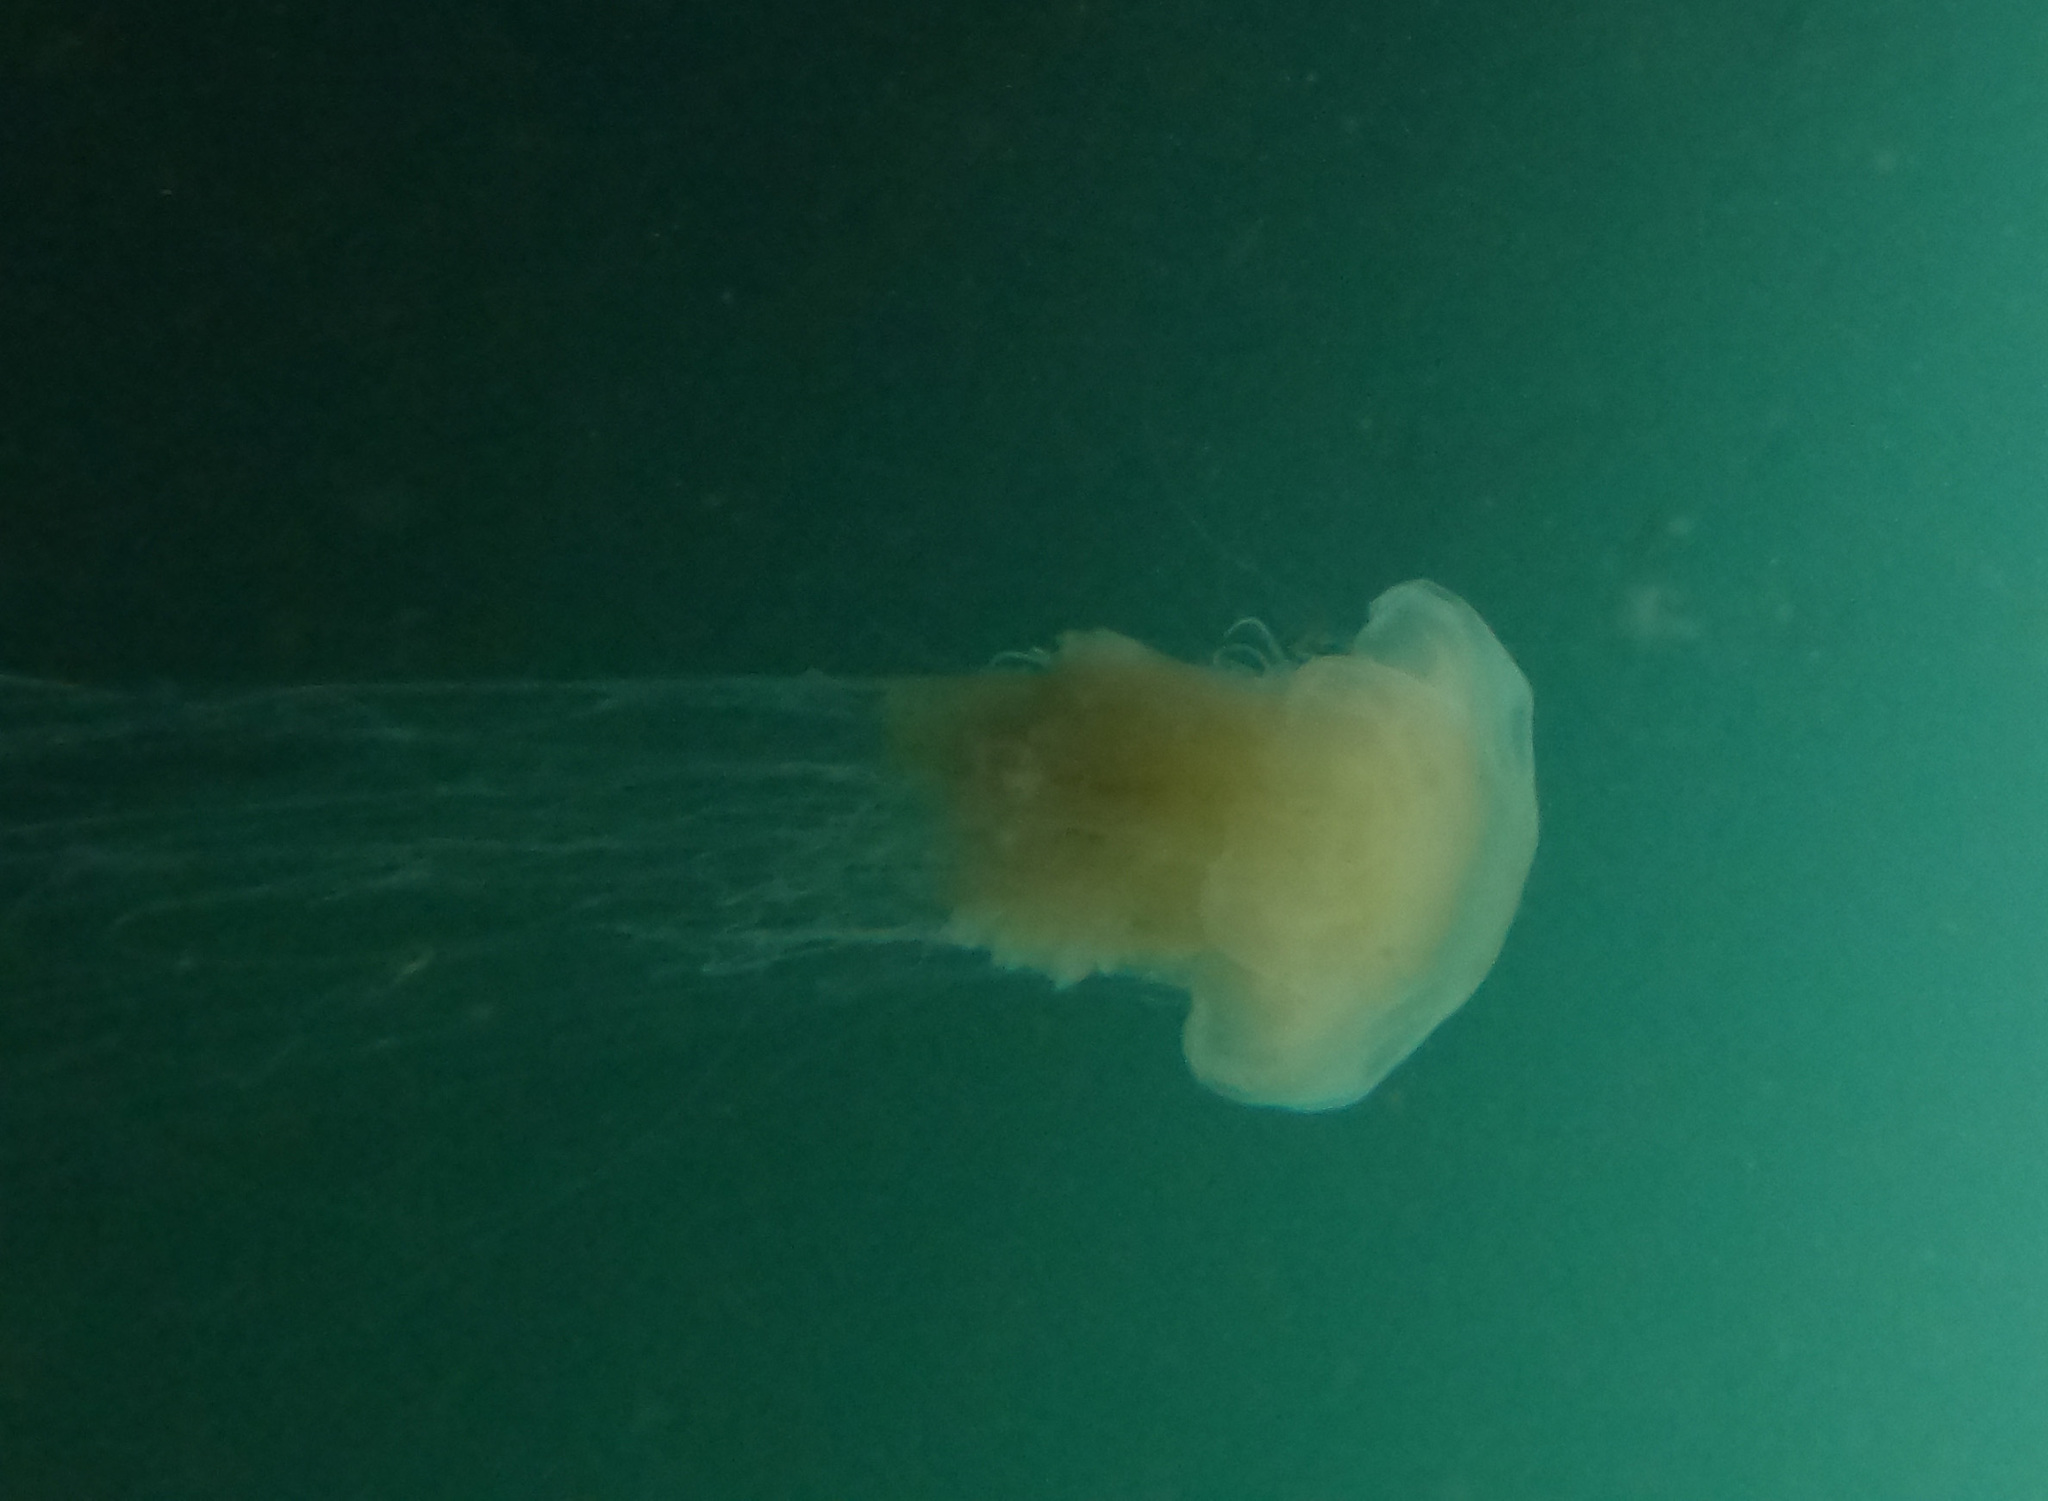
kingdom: Animalia
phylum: Cnidaria
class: Scyphozoa
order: Semaeostomeae
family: Phacellophoridae
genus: Phacellophora
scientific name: Phacellophora camtschatica
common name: Fried-egg jellyfish
